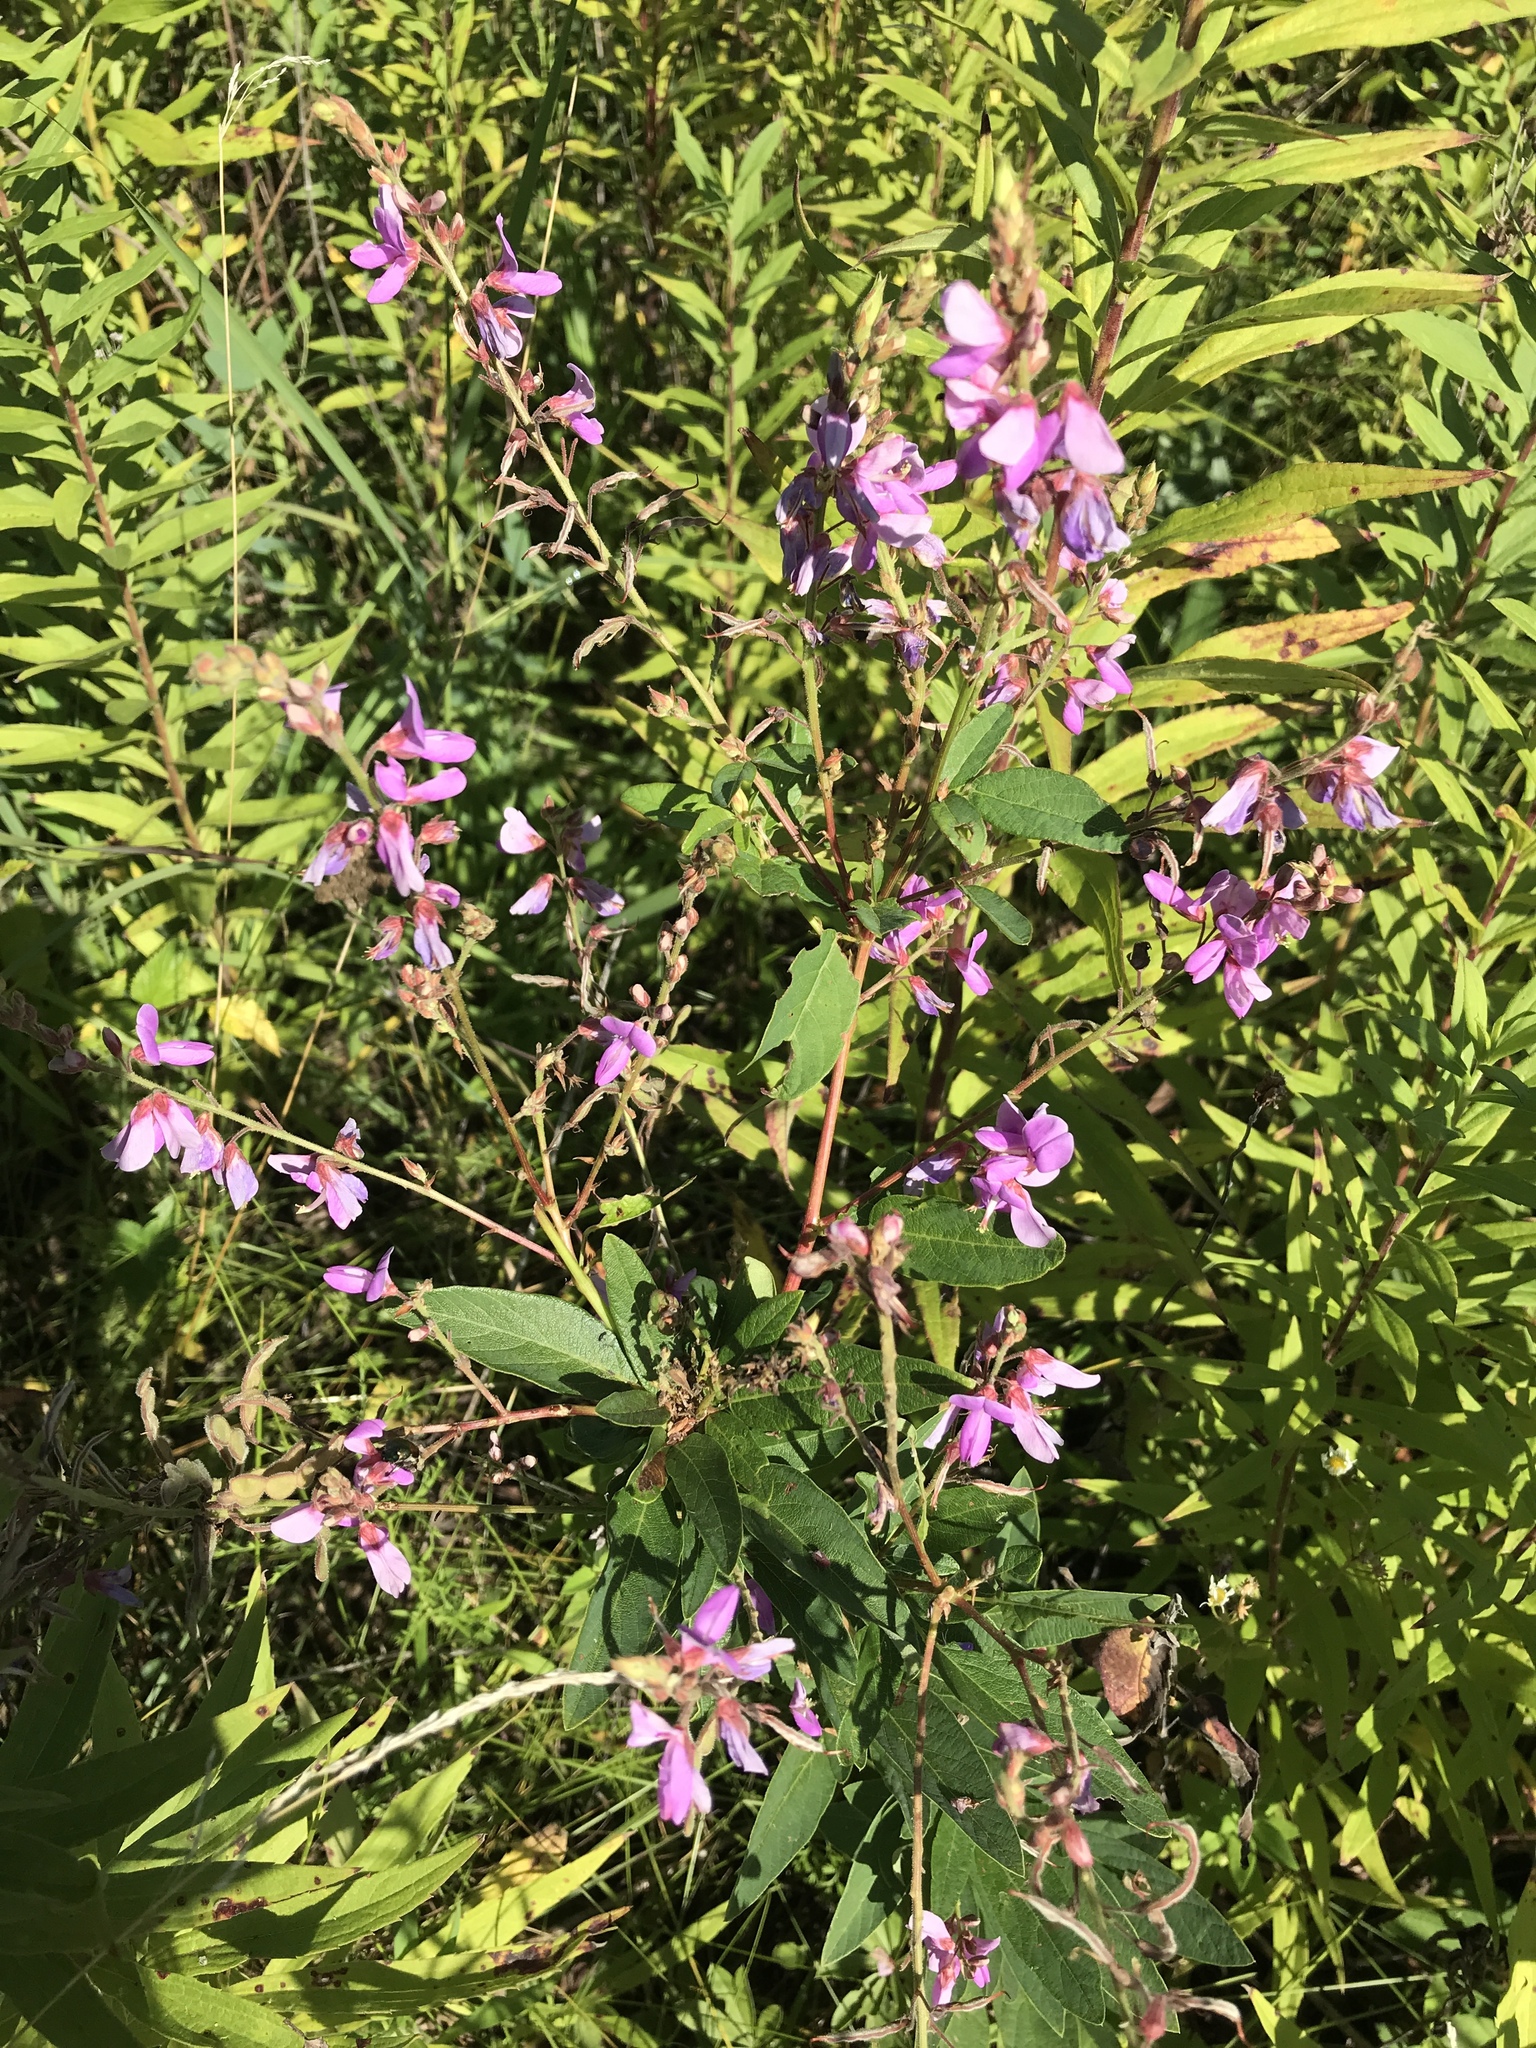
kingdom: Plantae
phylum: Tracheophyta
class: Magnoliopsida
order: Fabales
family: Fabaceae
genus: Desmodium
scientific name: Desmodium canadense
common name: Canada tick-trefoil
